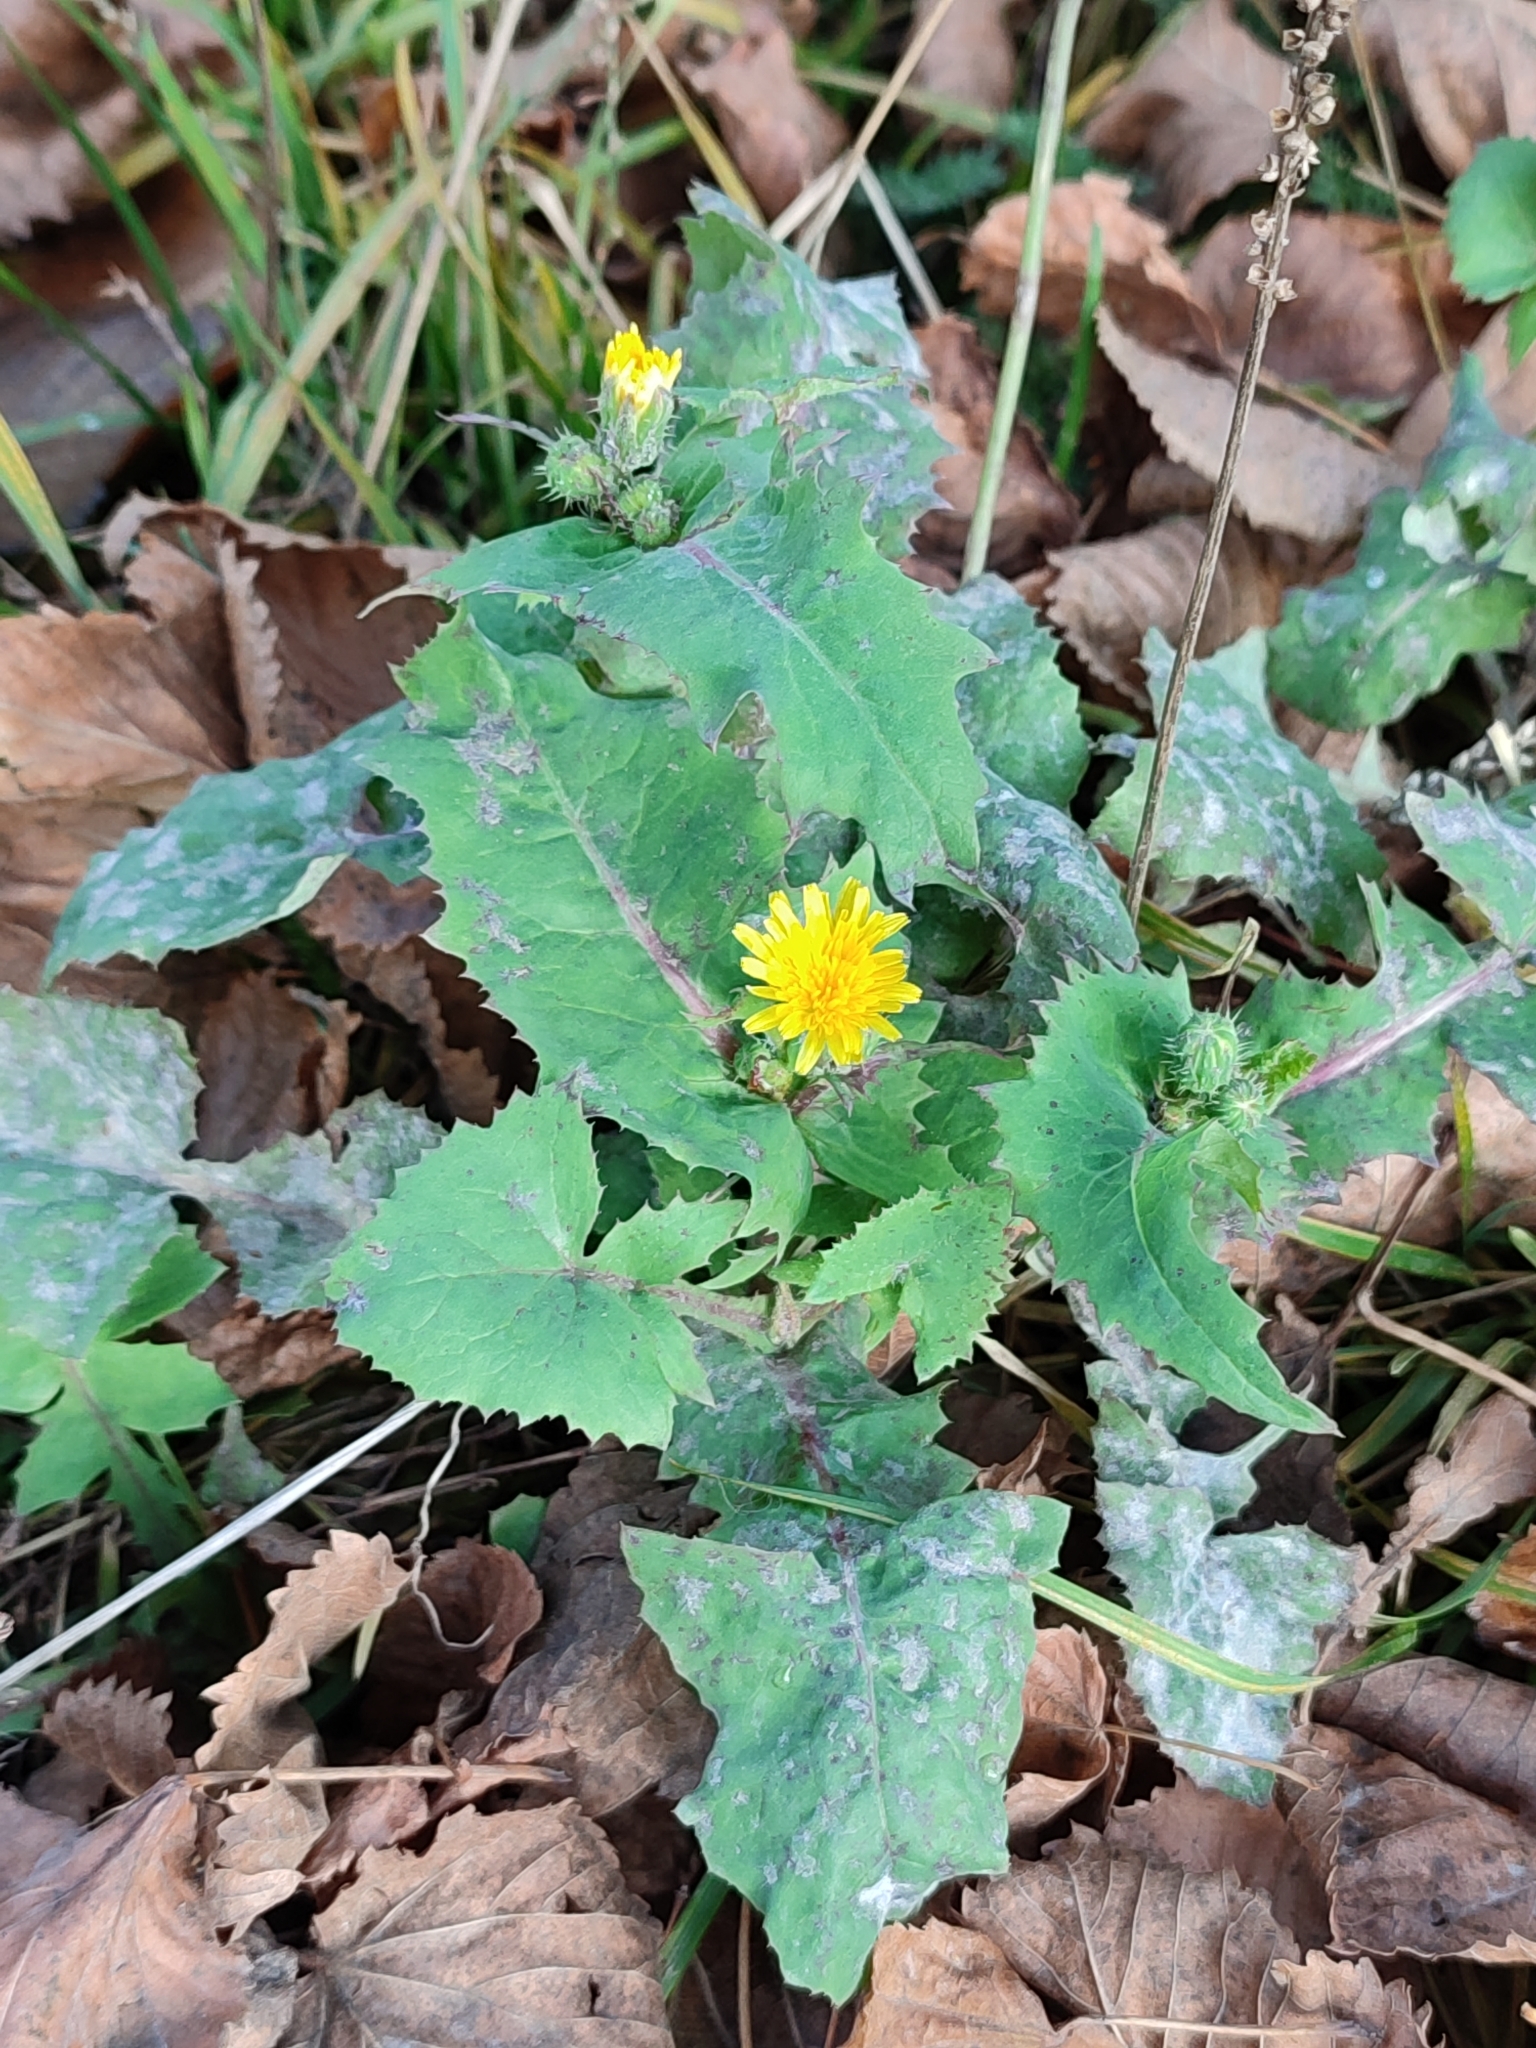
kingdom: Plantae
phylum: Tracheophyta
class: Magnoliopsida
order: Asterales
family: Asteraceae
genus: Sonchus
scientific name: Sonchus oleraceus
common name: Common sowthistle
